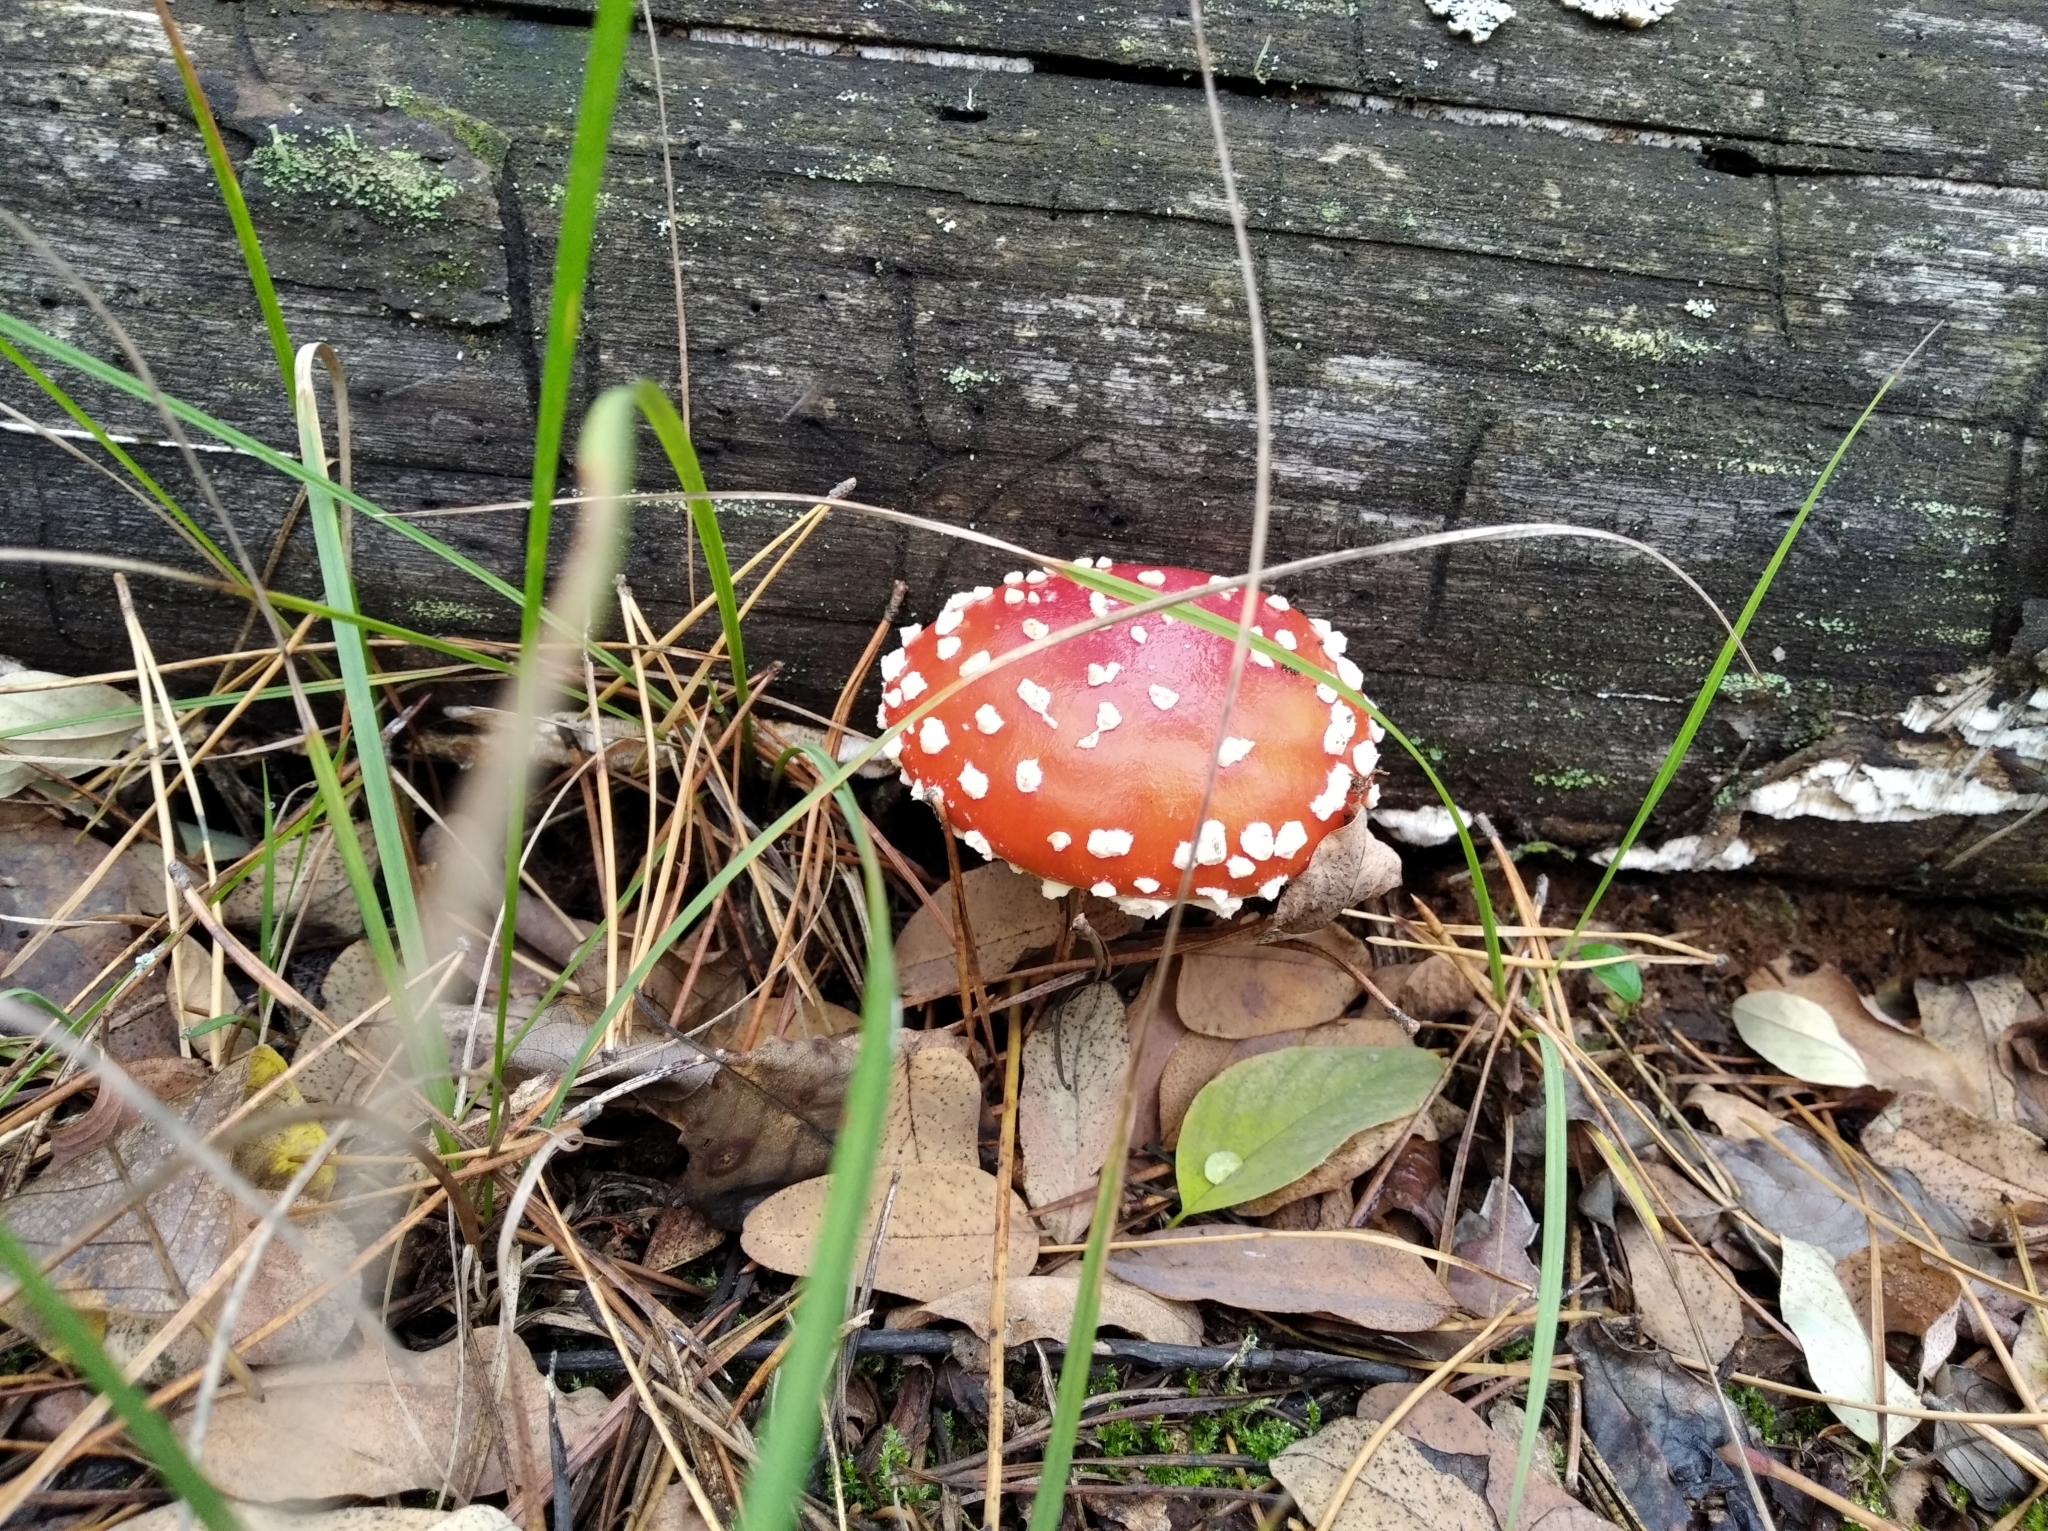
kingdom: Fungi
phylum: Basidiomycota
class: Agaricomycetes
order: Agaricales
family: Amanitaceae
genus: Amanita
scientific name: Amanita muscaria
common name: Fly agaric
